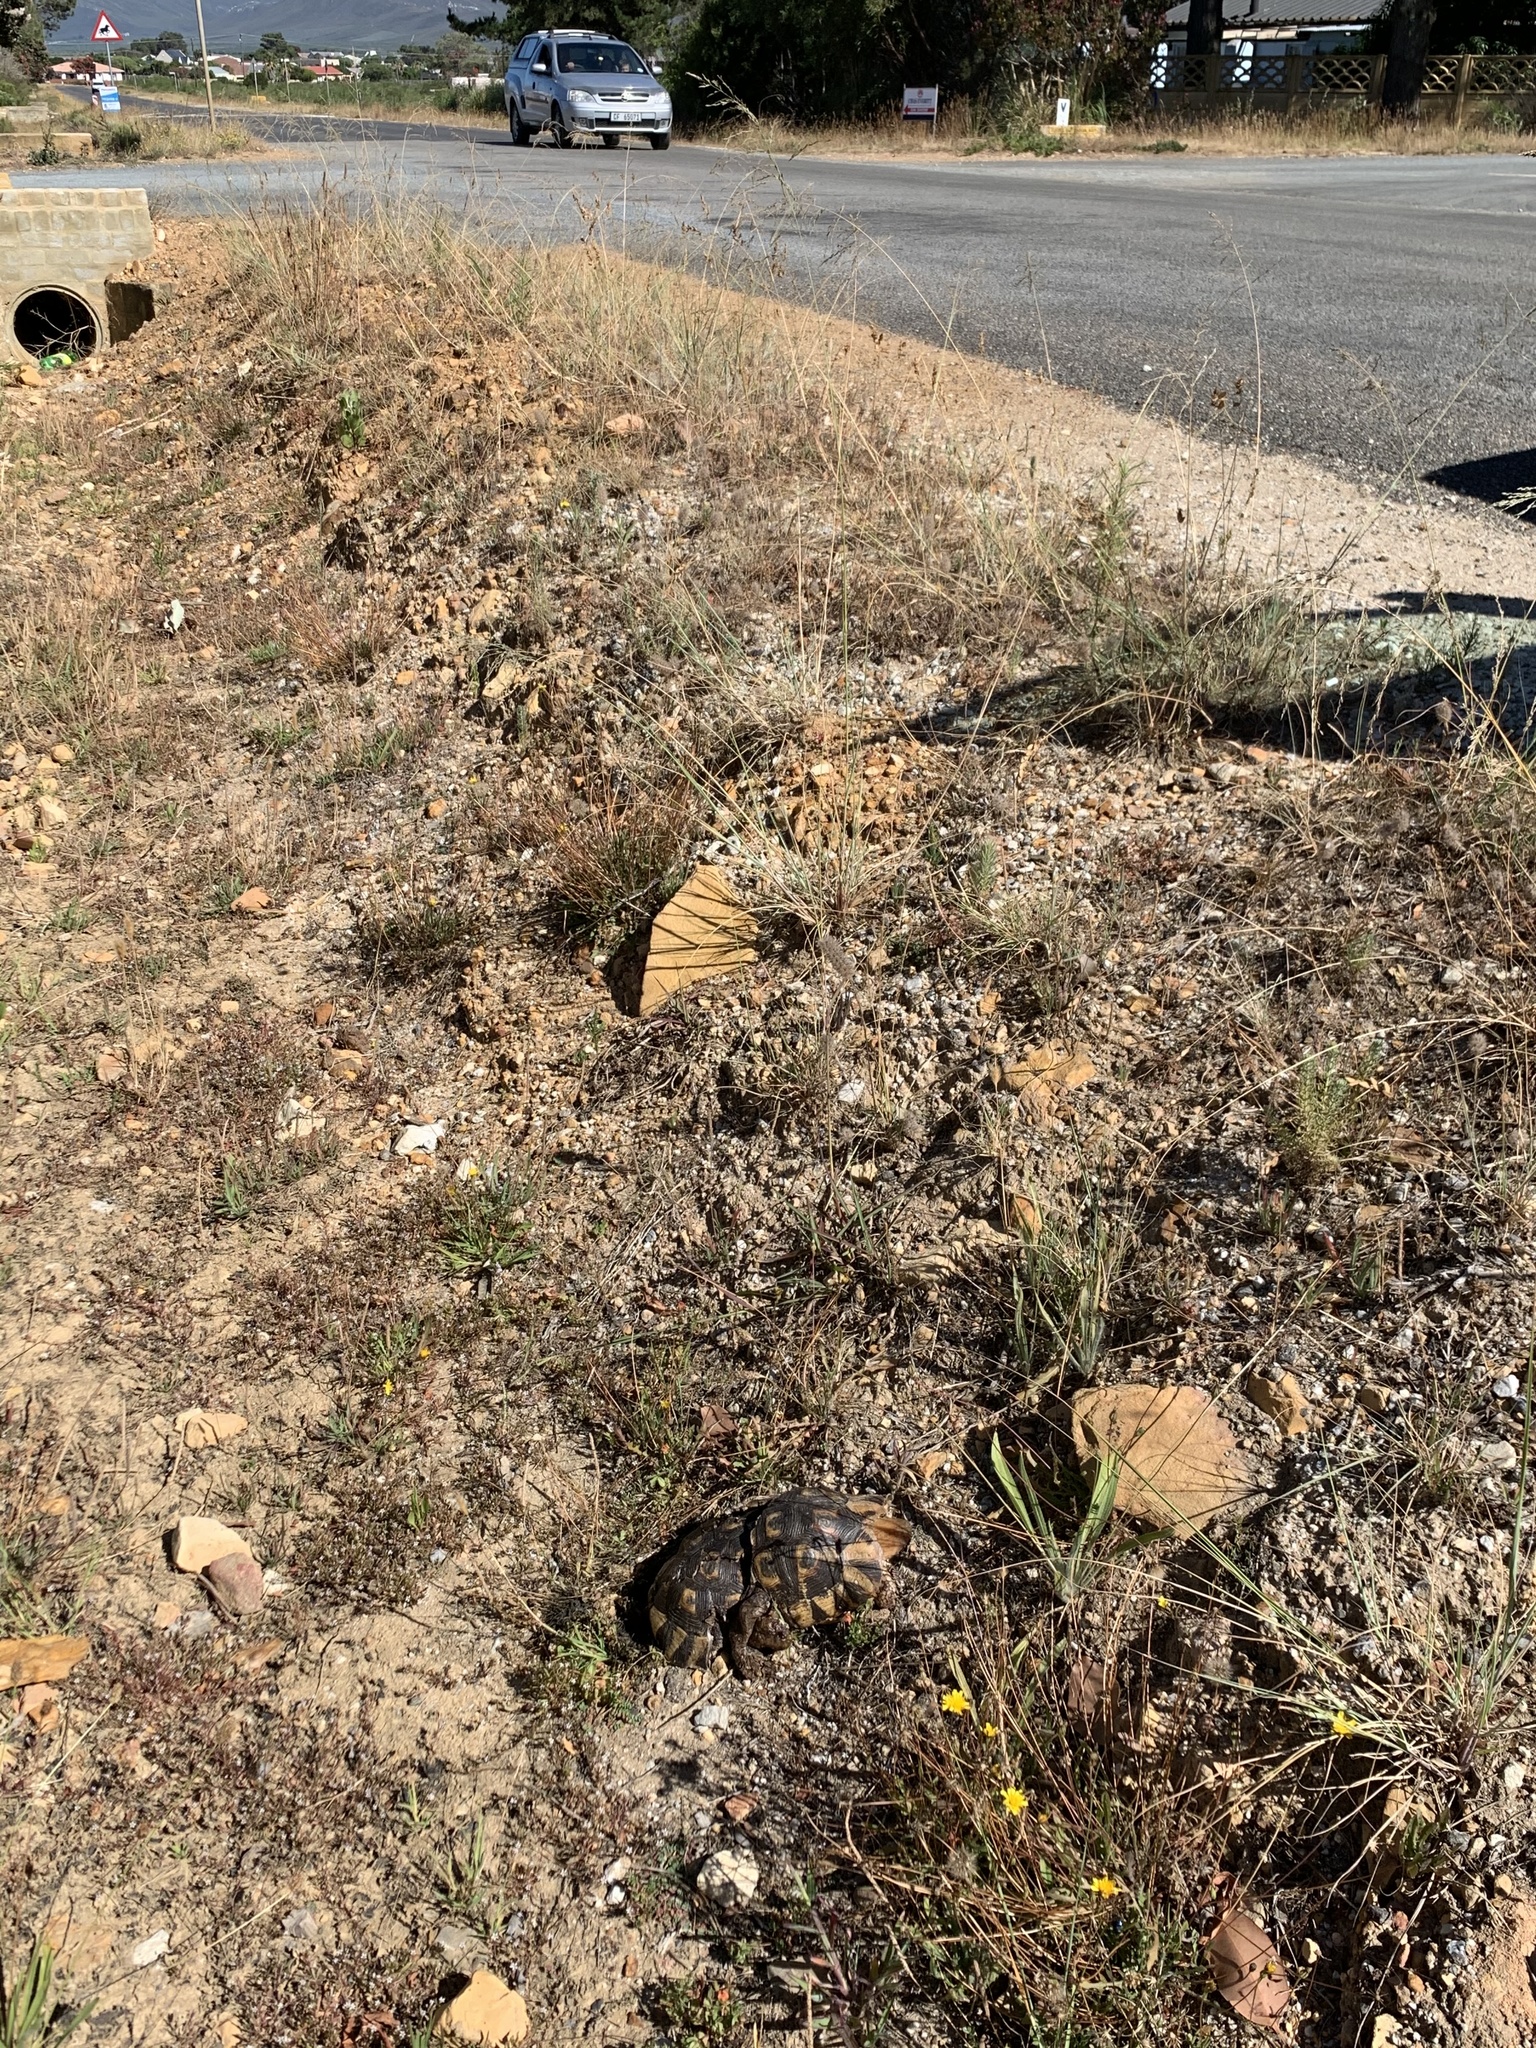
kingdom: Animalia
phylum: Chordata
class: Testudines
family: Testudinidae
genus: Chersina
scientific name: Chersina angulata
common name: South african bowsprit tortoise
